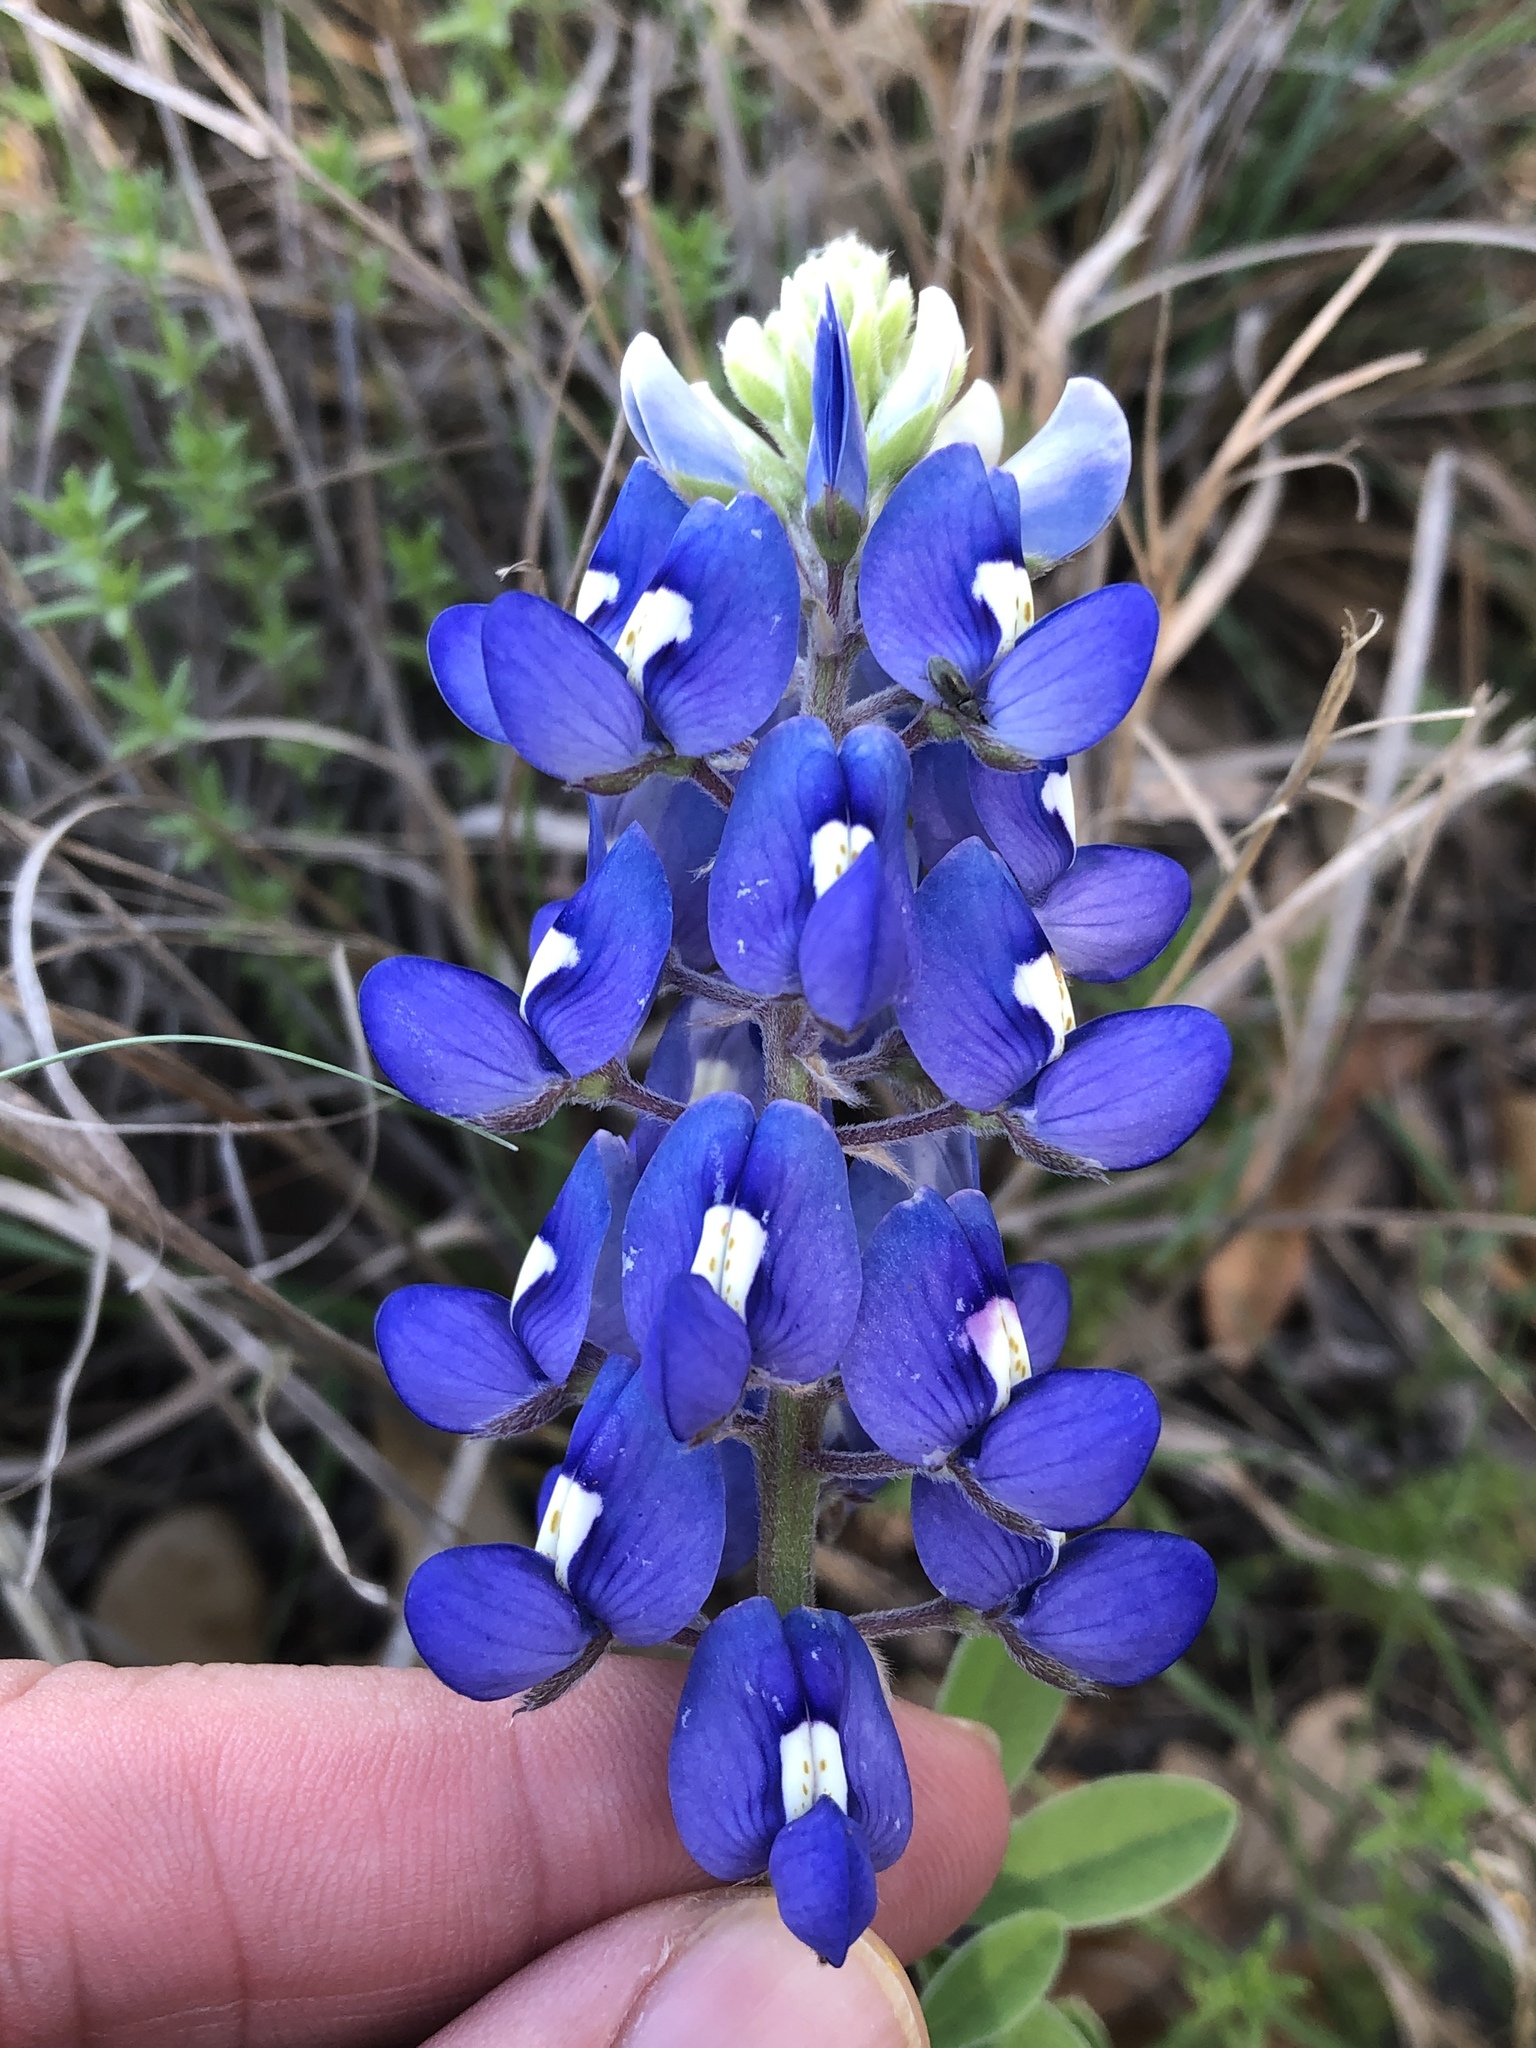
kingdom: Plantae
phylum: Tracheophyta
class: Magnoliopsida
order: Fabales
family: Fabaceae
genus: Lupinus
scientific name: Lupinus texensis
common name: Texas bluebonnet
